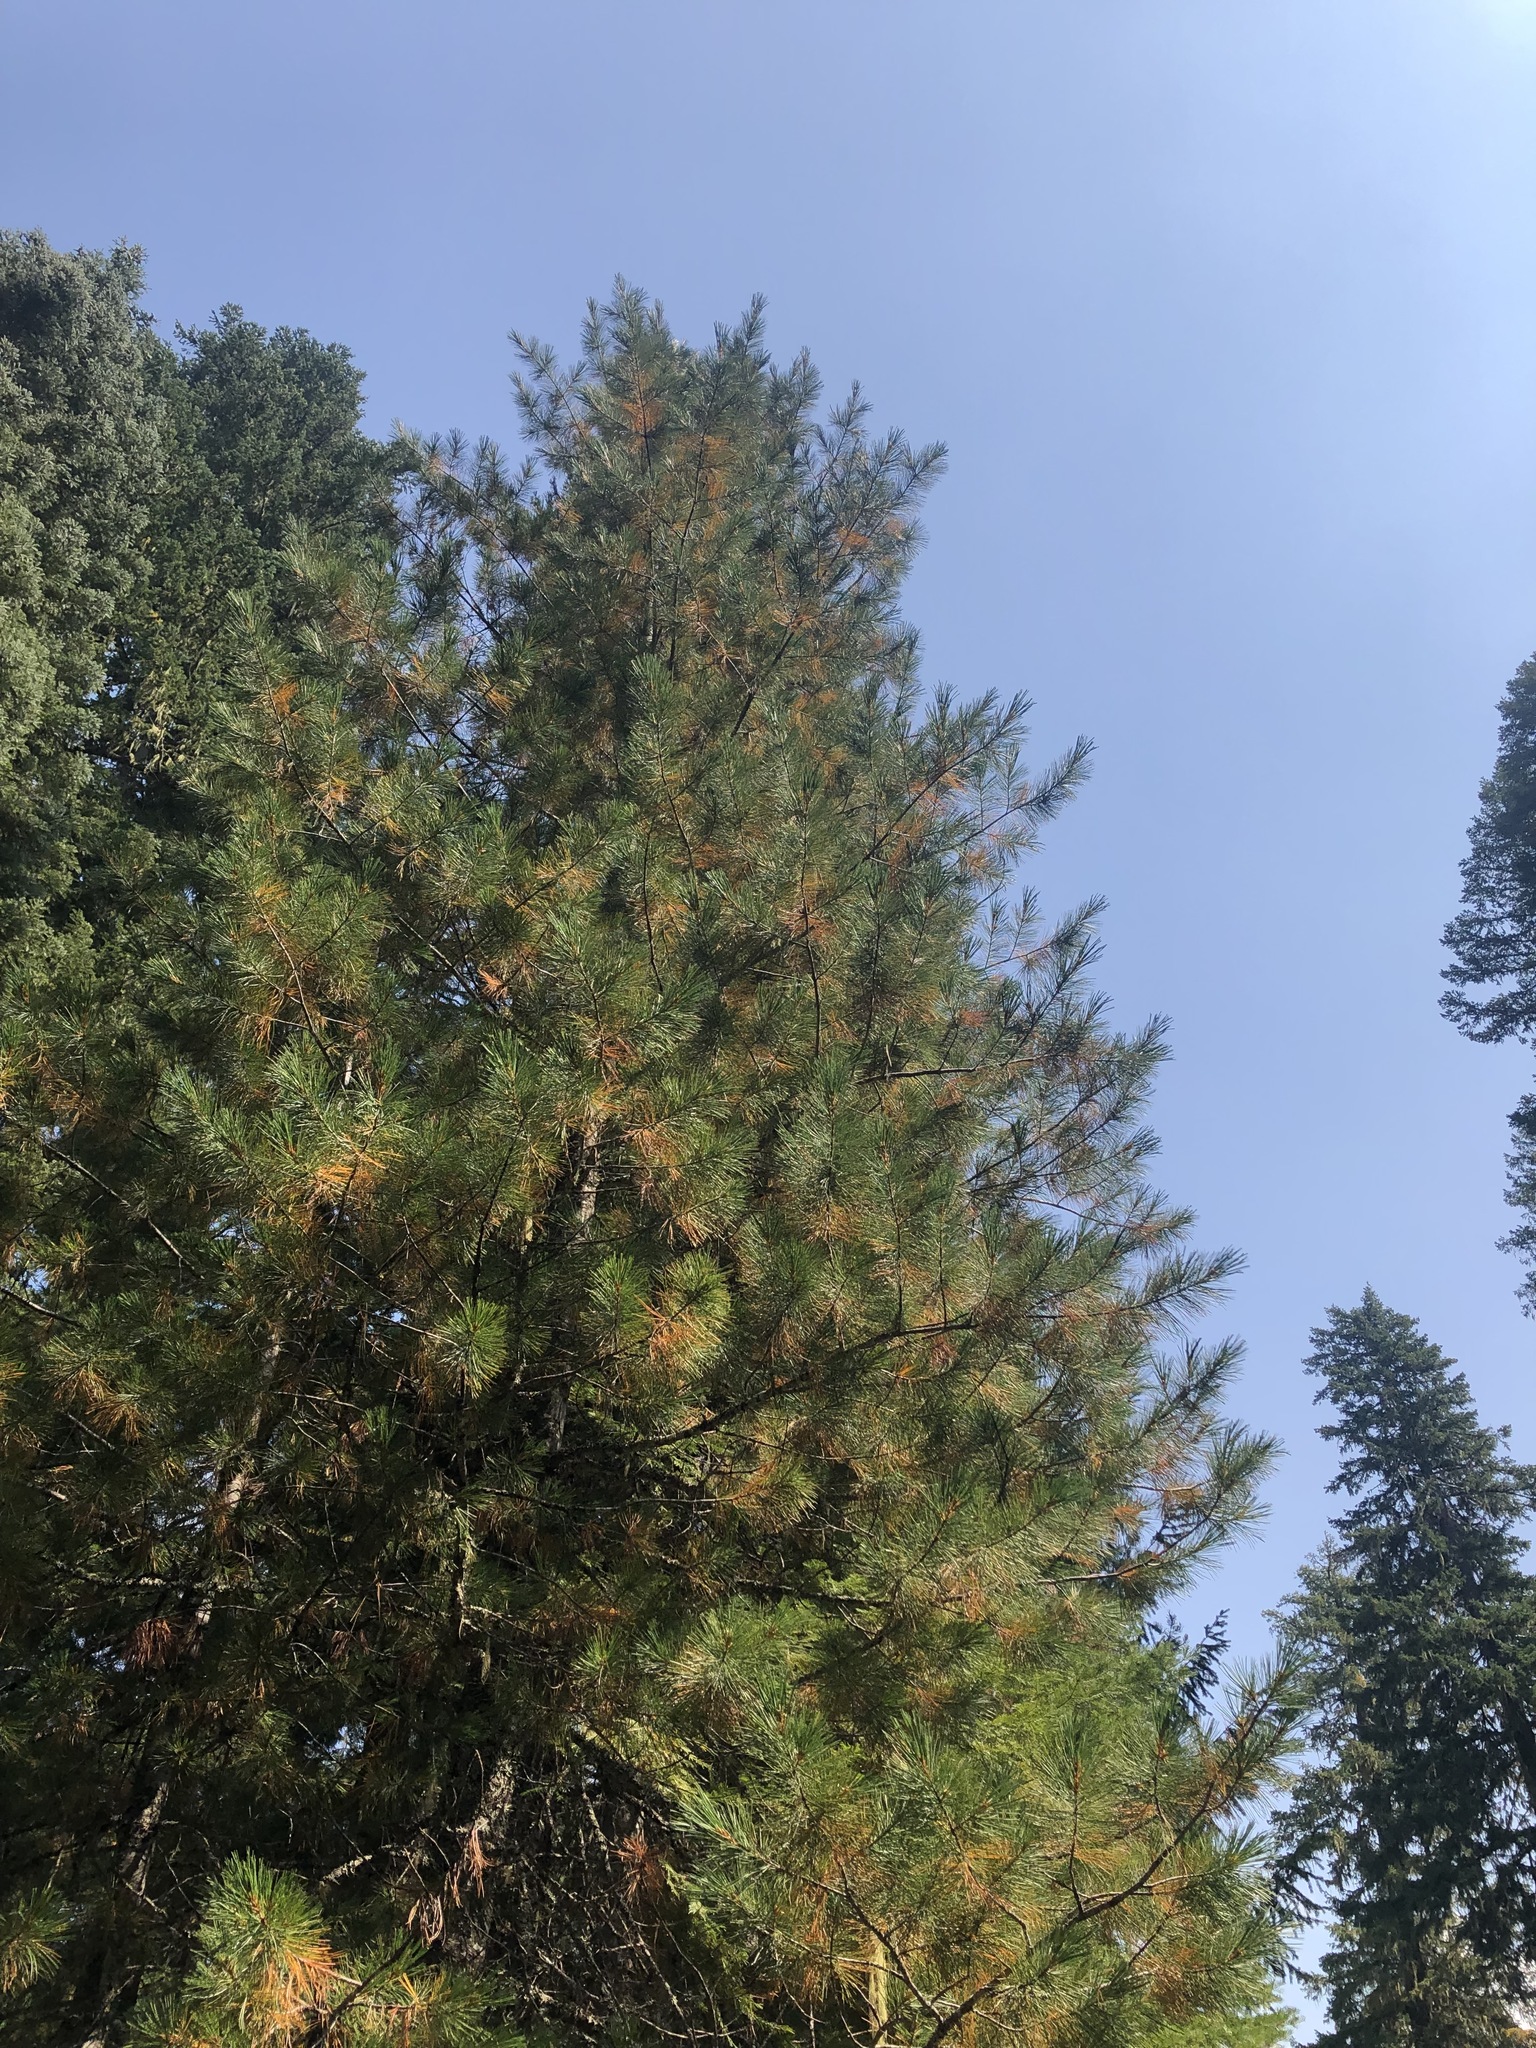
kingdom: Plantae
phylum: Tracheophyta
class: Pinopsida
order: Pinales
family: Pinaceae
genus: Pinus
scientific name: Pinus monticola
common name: Western white pine
